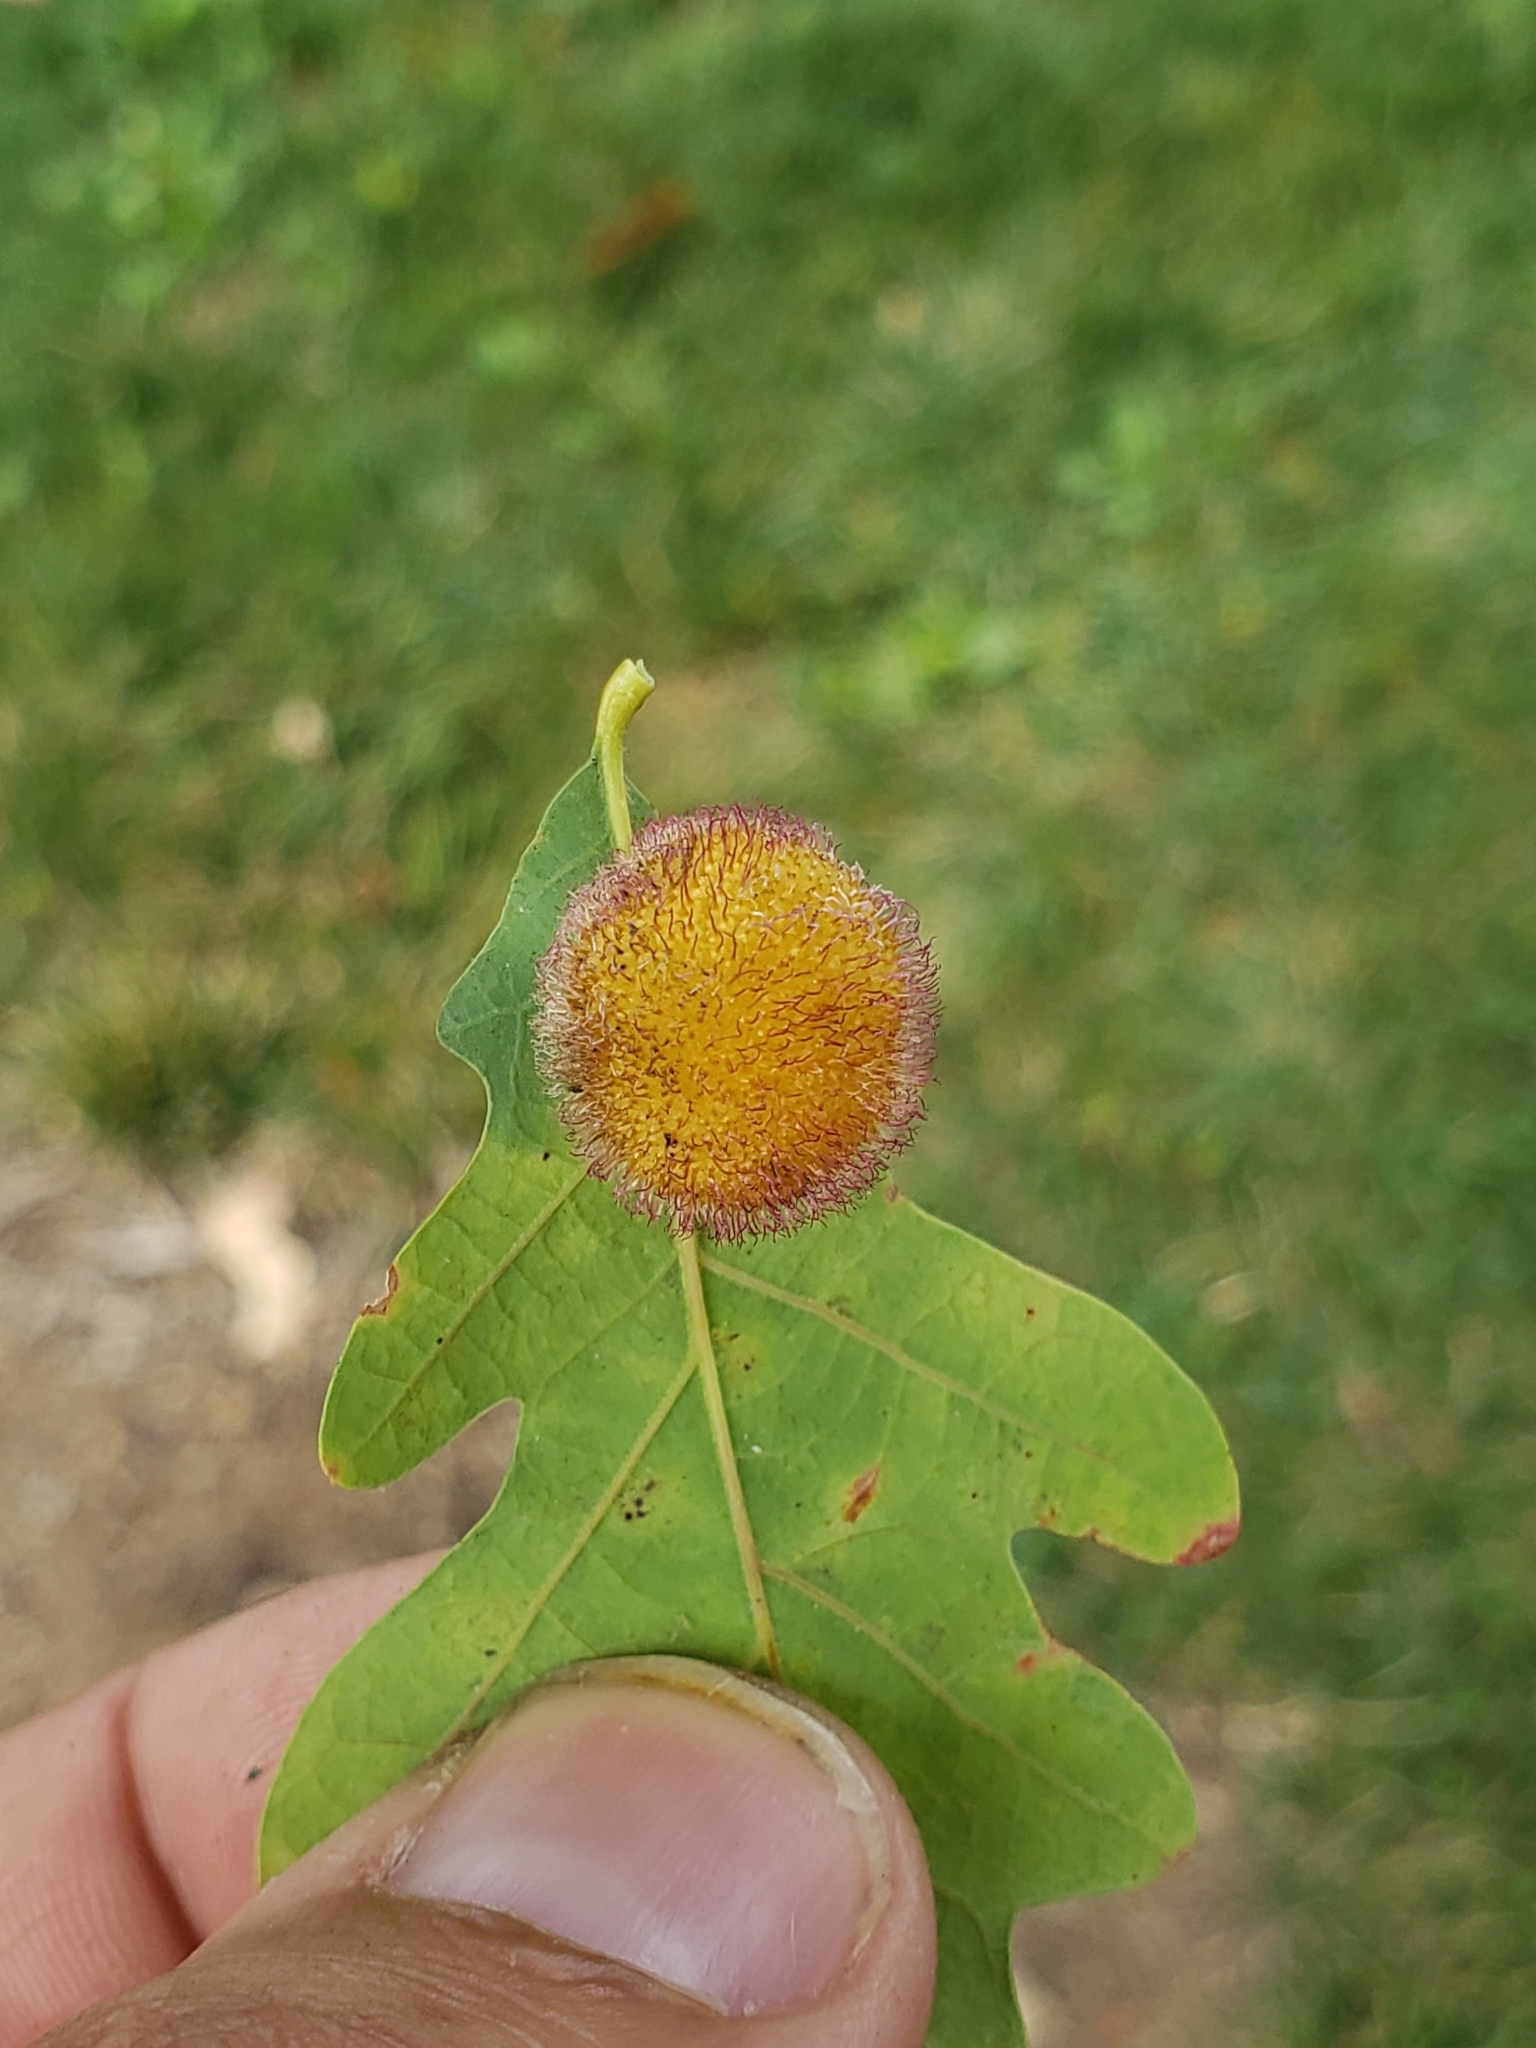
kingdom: Animalia
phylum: Arthropoda
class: Insecta
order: Hymenoptera
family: Cynipidae
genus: Acraspis
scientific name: Acraspis erinacei
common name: Hedgehog gall wasp
